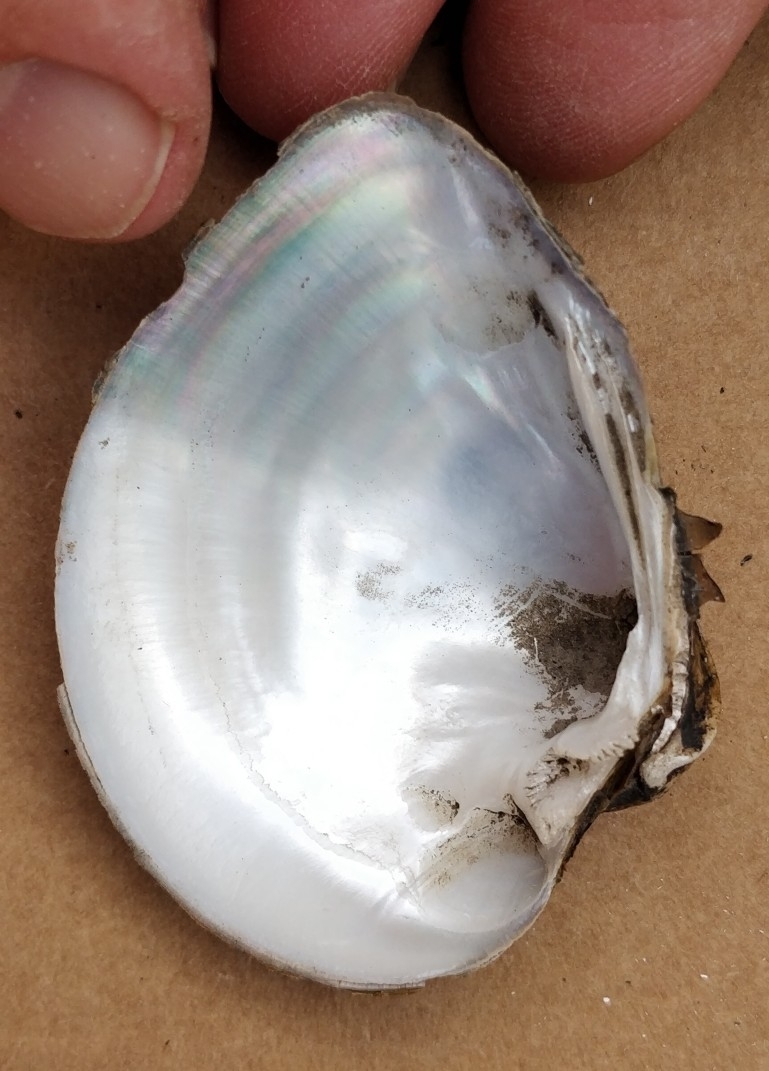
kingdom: Animalia
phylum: Mollusca
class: Bivalvia
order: Unionida
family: Unionidae
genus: Truncilla
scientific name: Truncilla truncata
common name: Deertoe
